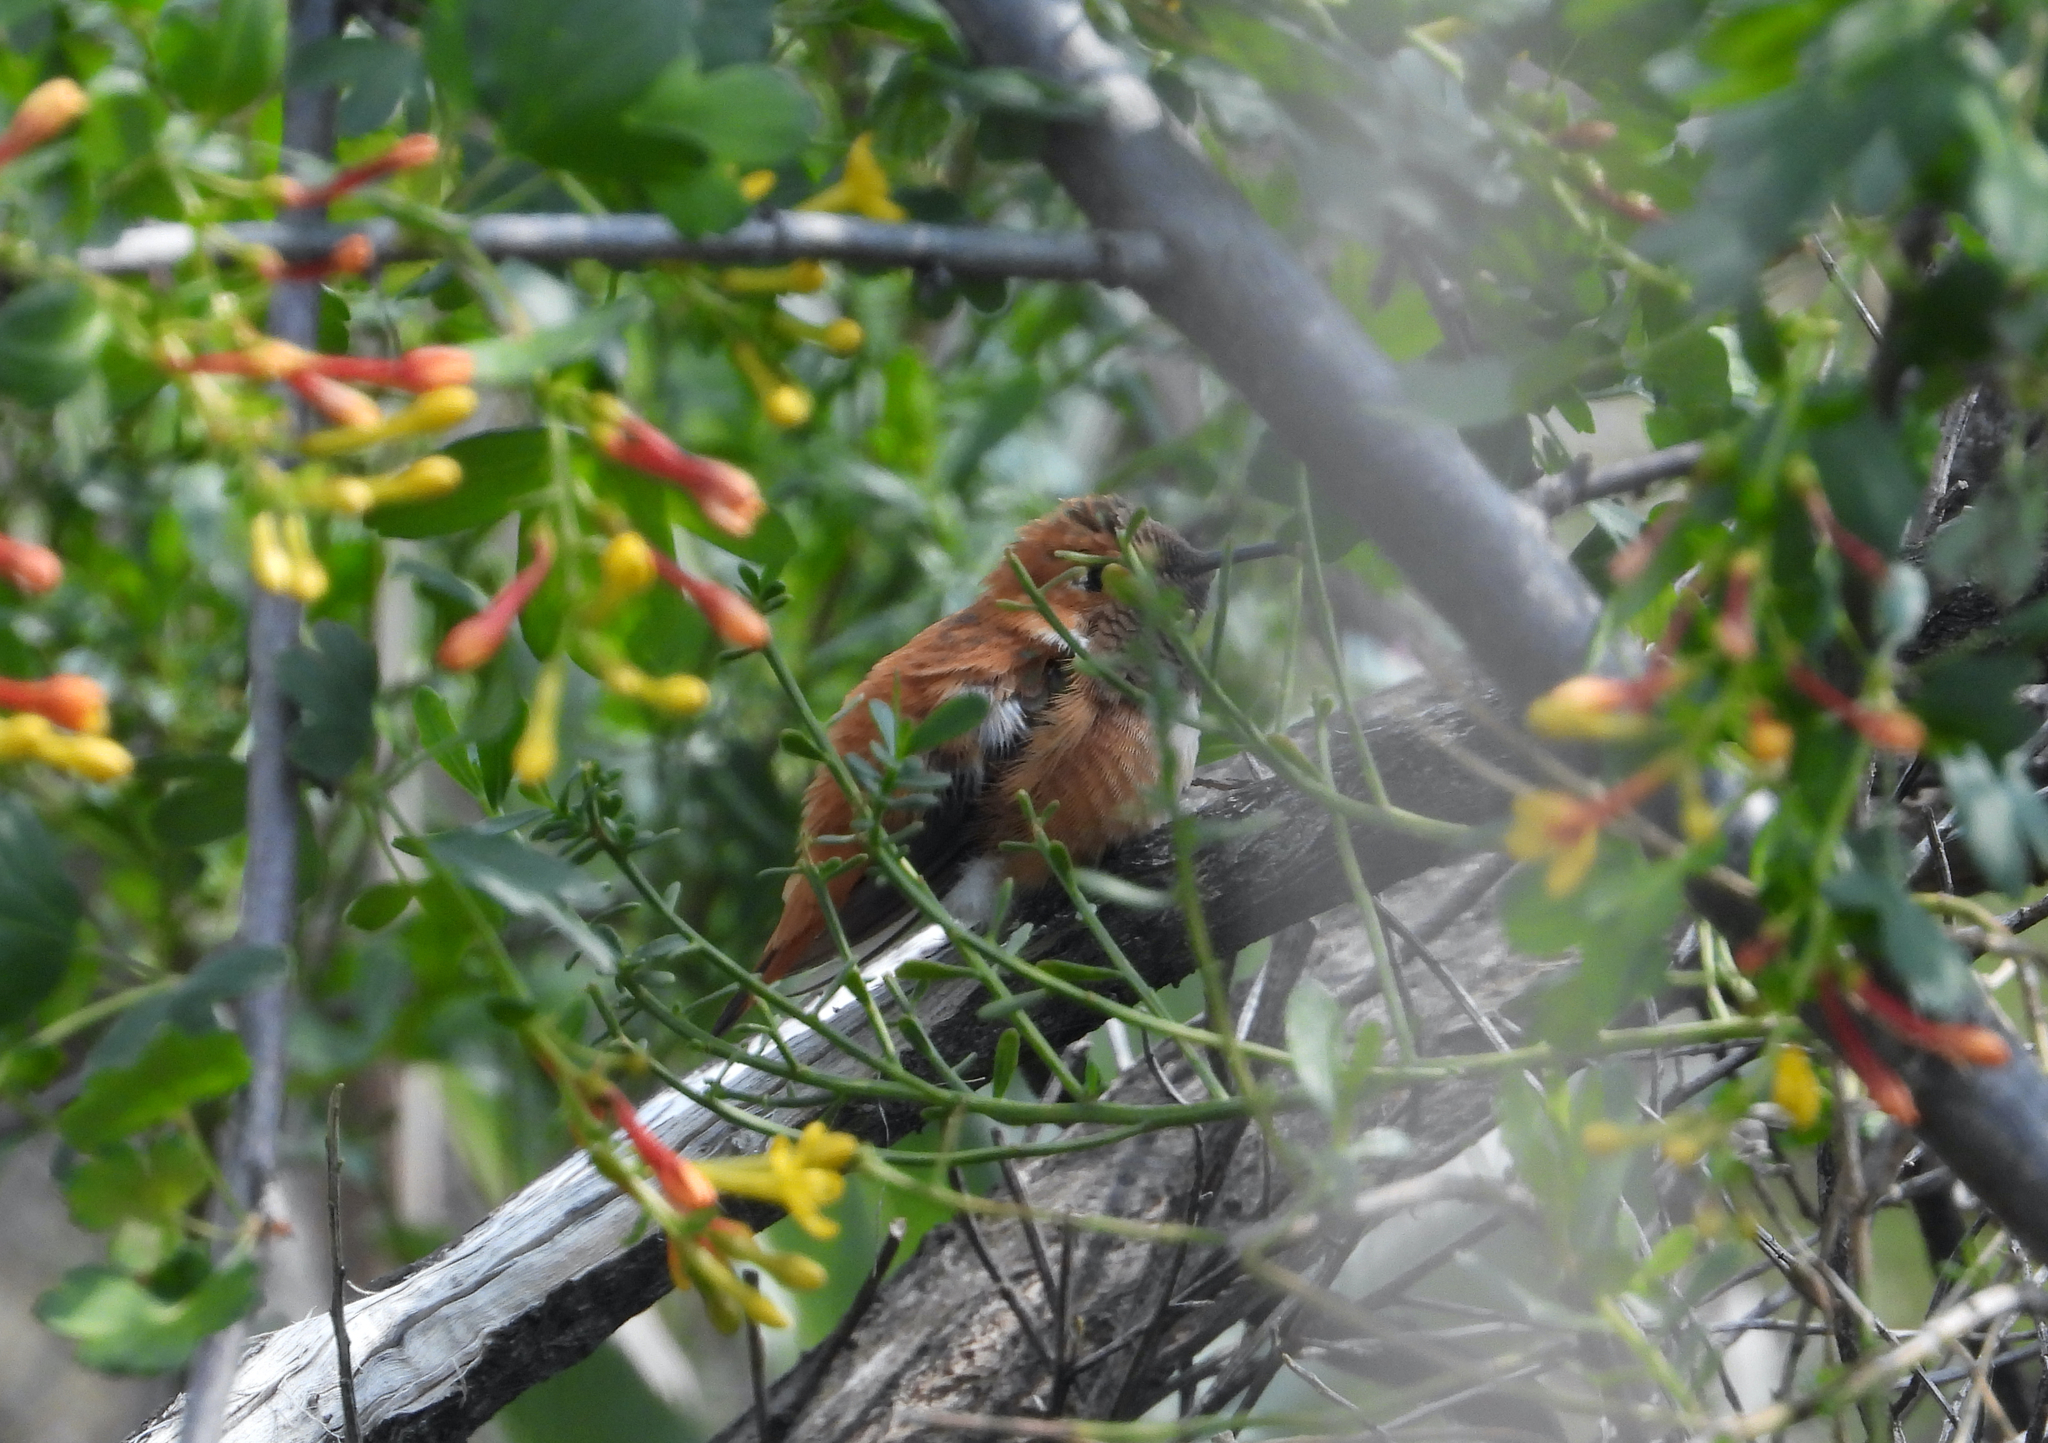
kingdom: Animalia
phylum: Chordata
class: Aves
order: Apodiformes
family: Trochilidae
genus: Selasphorus
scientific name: Selasphorus rufus
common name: Rufous hummingbird
